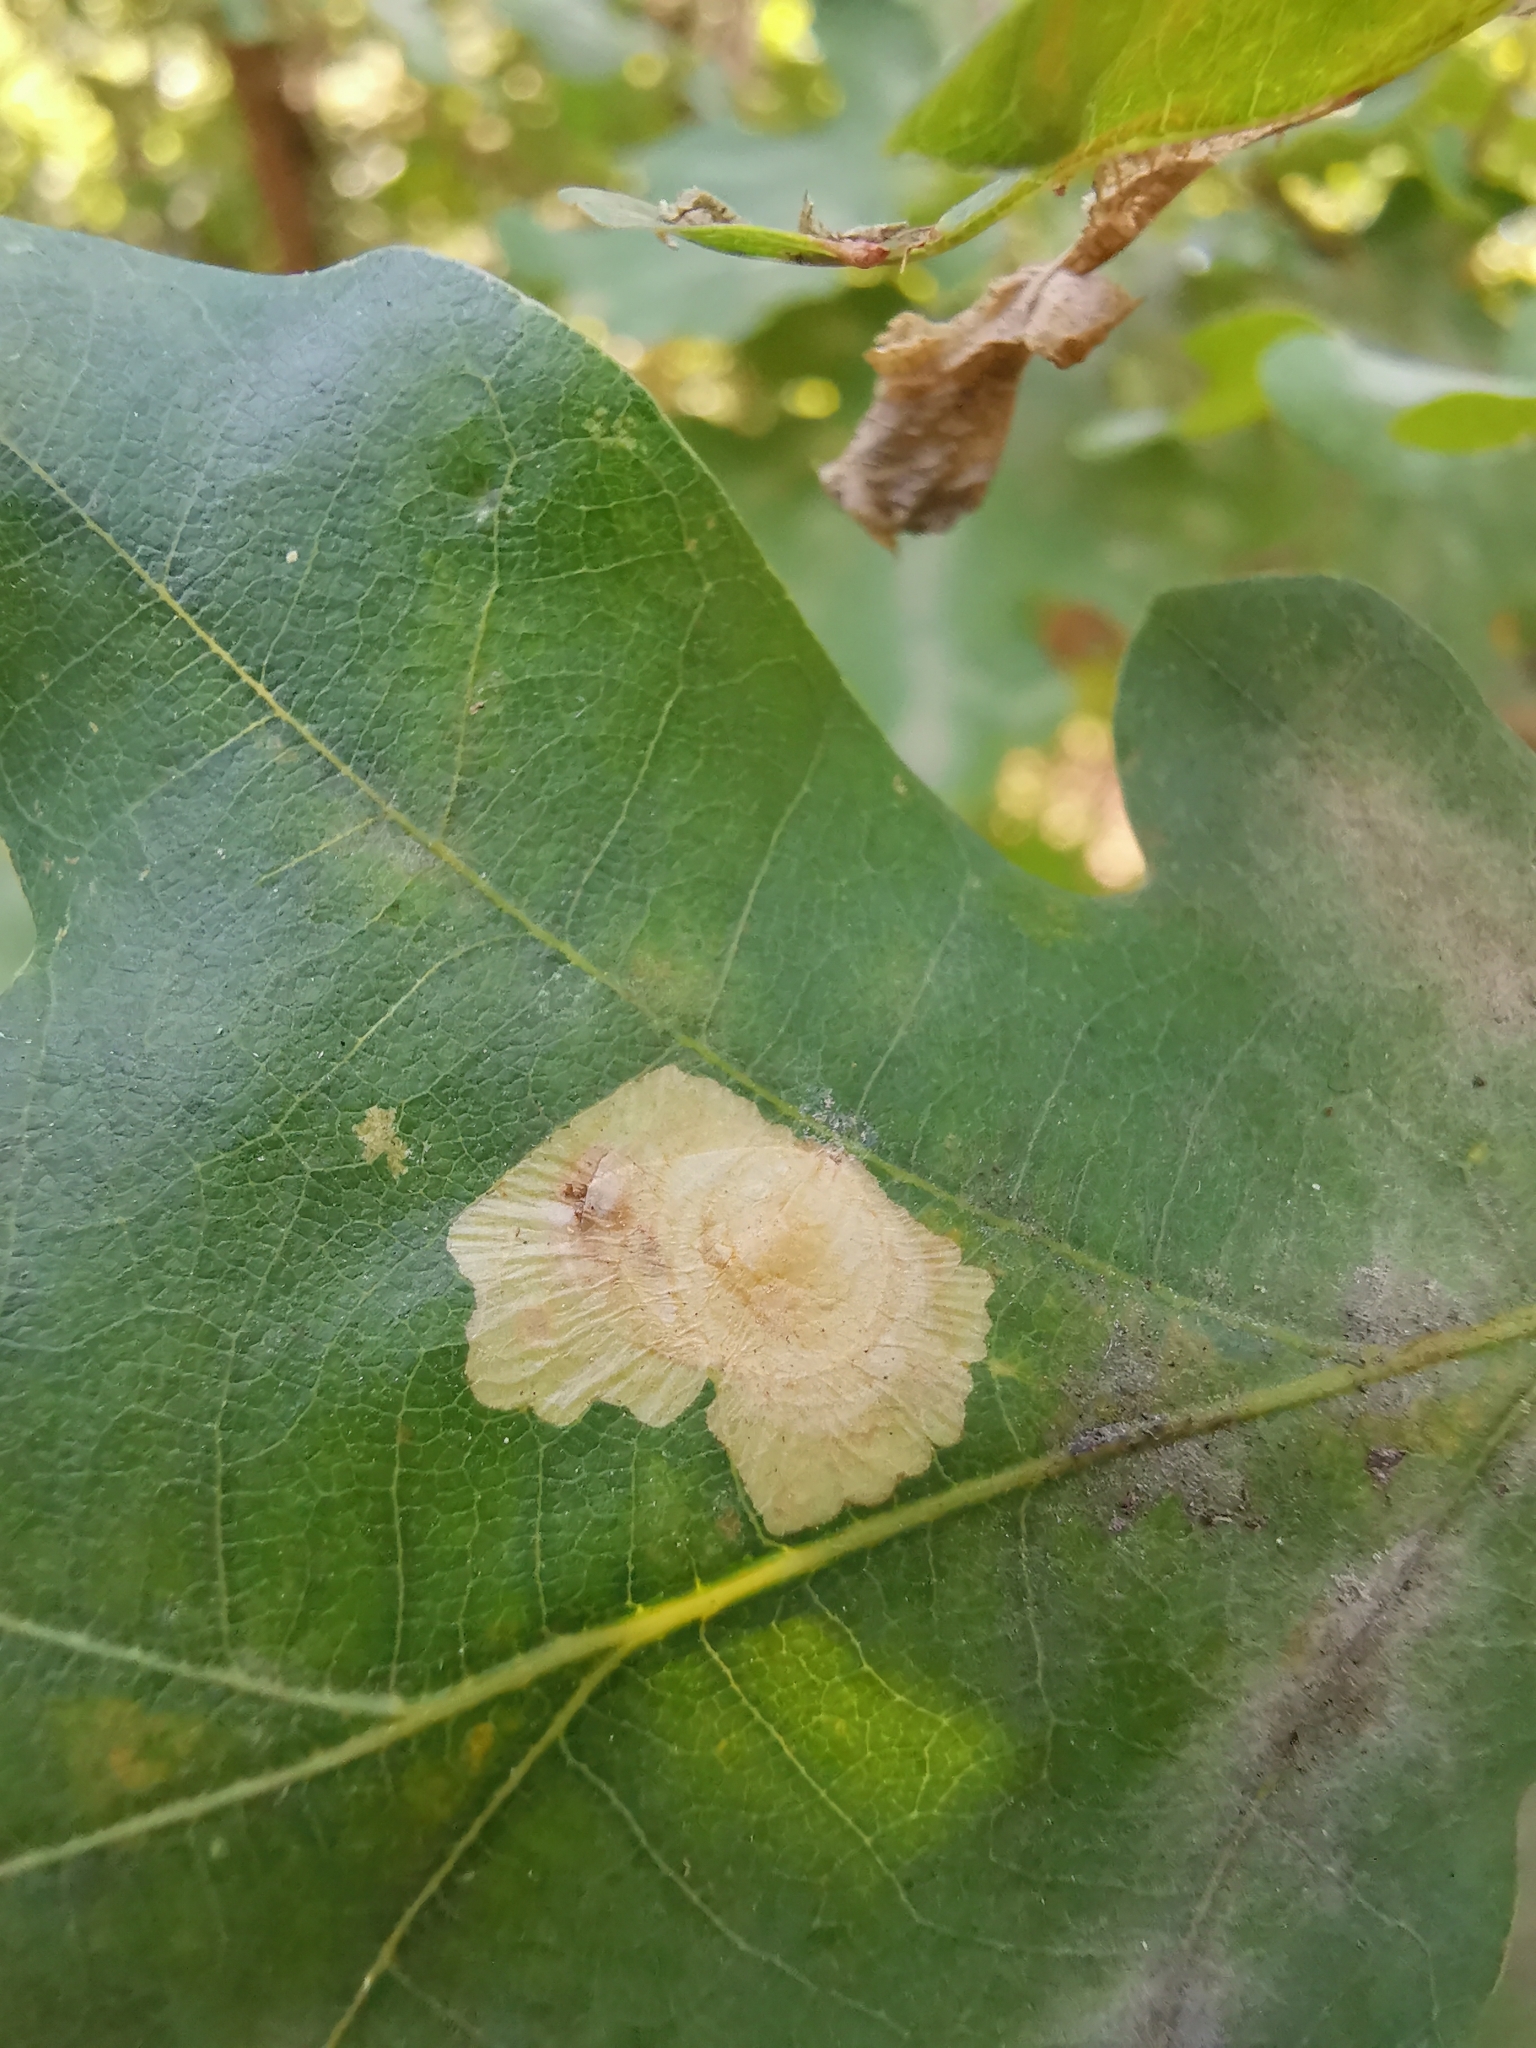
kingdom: Animalia
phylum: Arthropoda
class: Insecta
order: Lepidoptera
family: Tischeriidae
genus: Tischeria
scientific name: Tischeria ekebladella
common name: Oak carl
